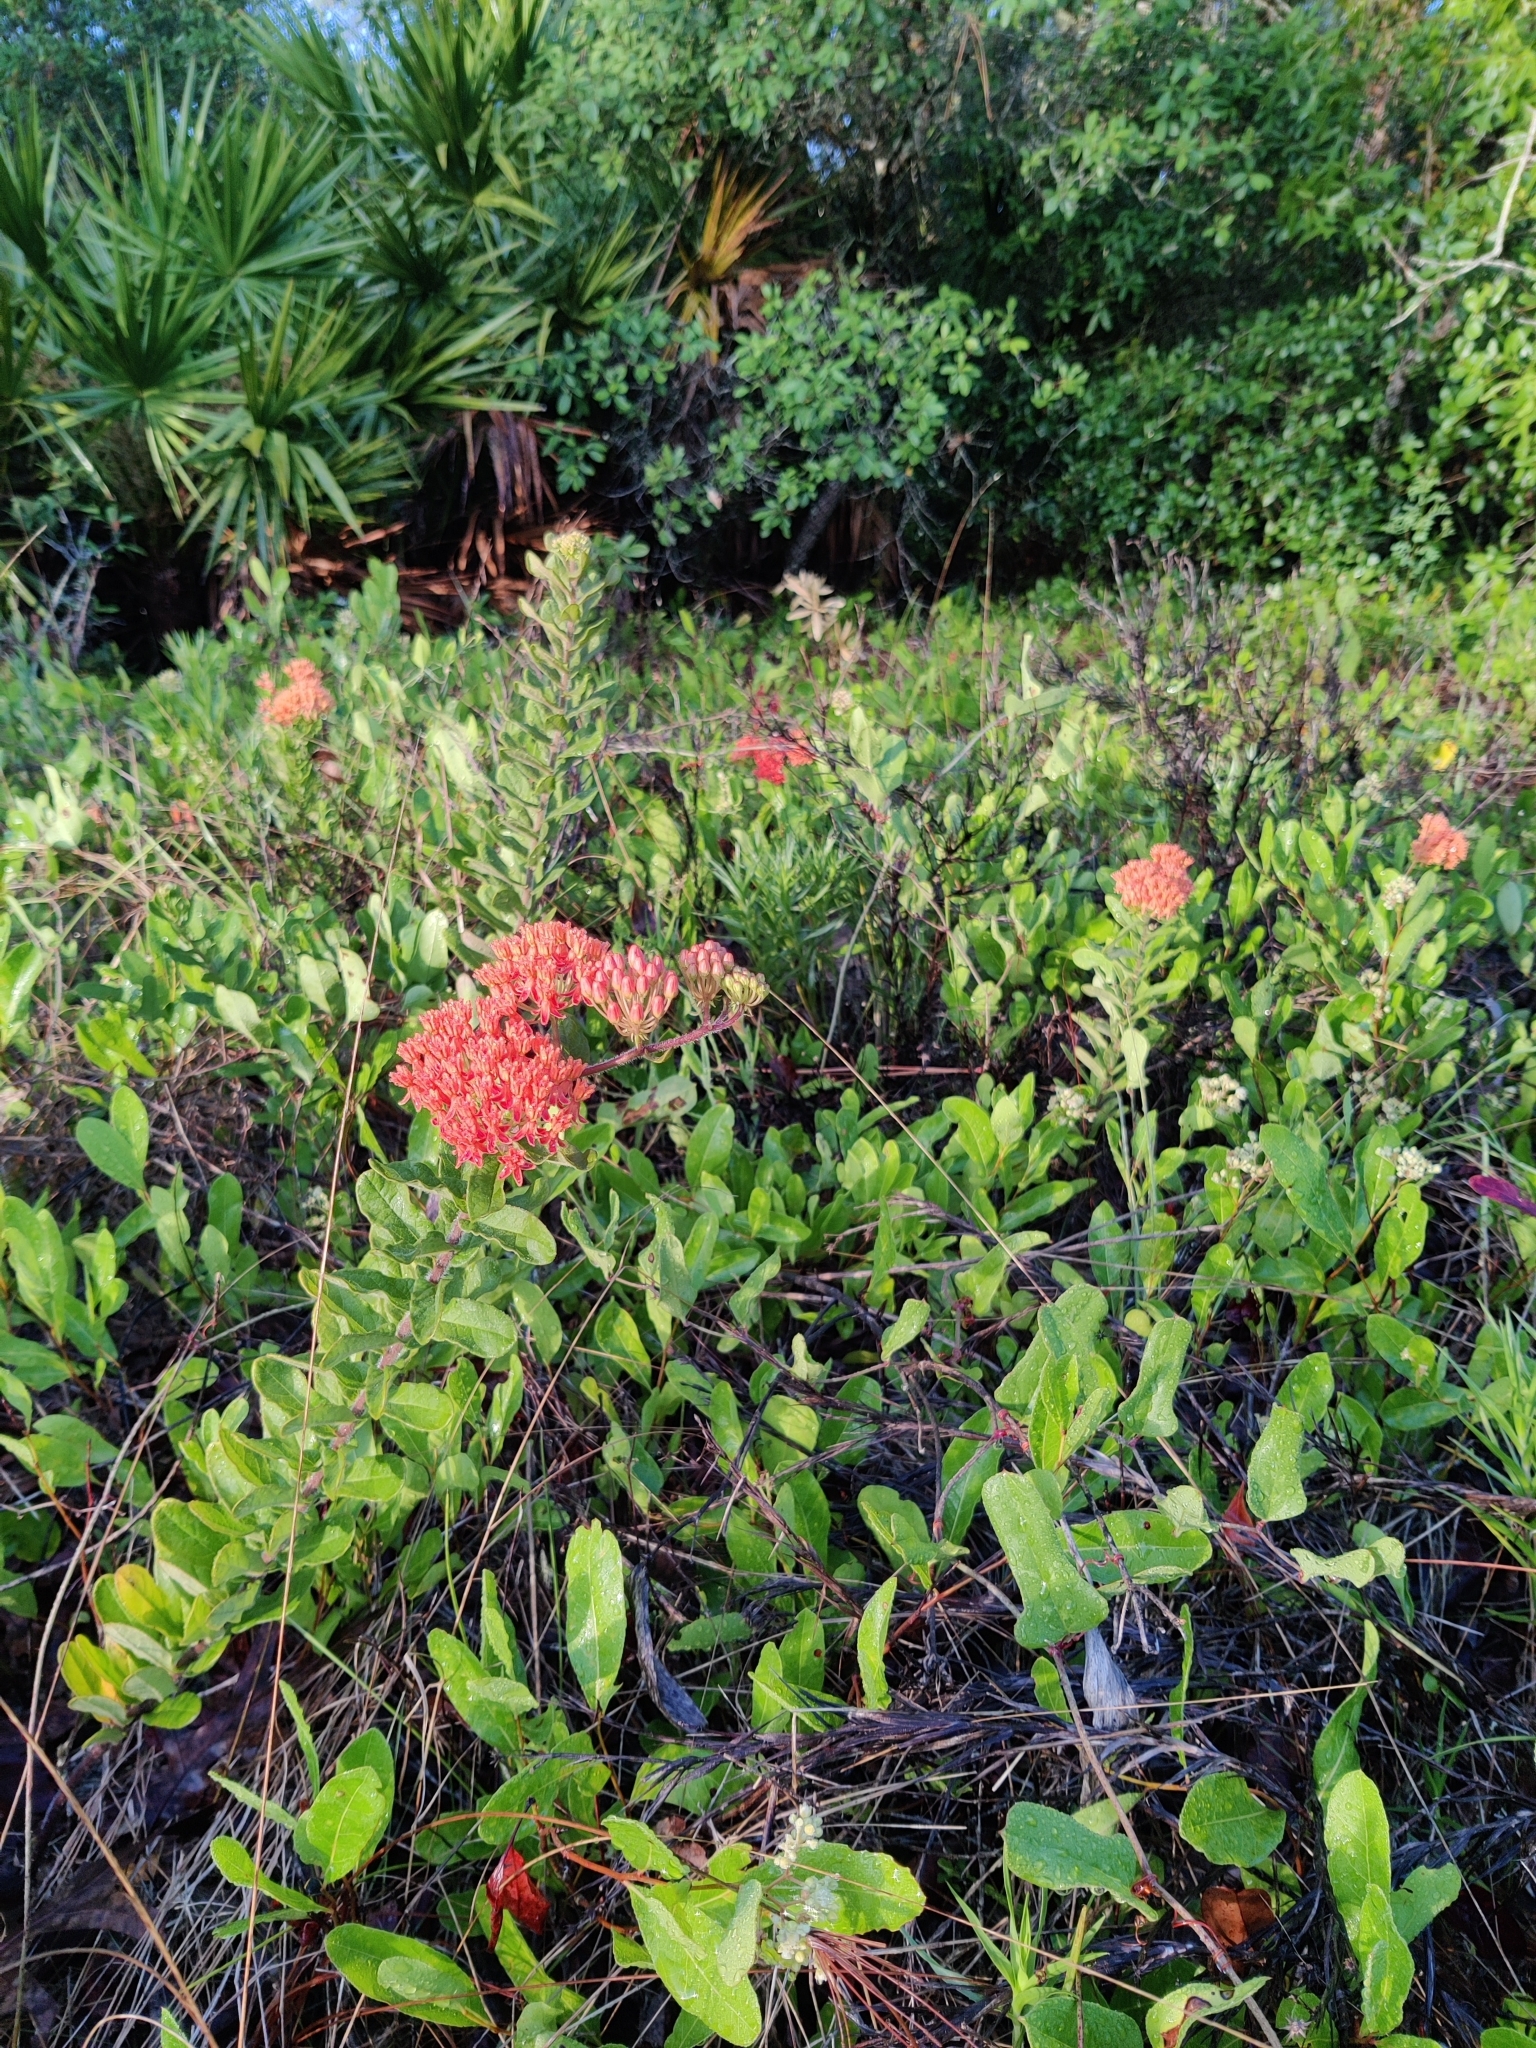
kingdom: Plantae
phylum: Tracheophyta
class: Magnoliopsida
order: Gentianales
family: Apocynaceae
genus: Asclepias
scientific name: Asclepias tuberosa
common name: Butterfly milkweed
